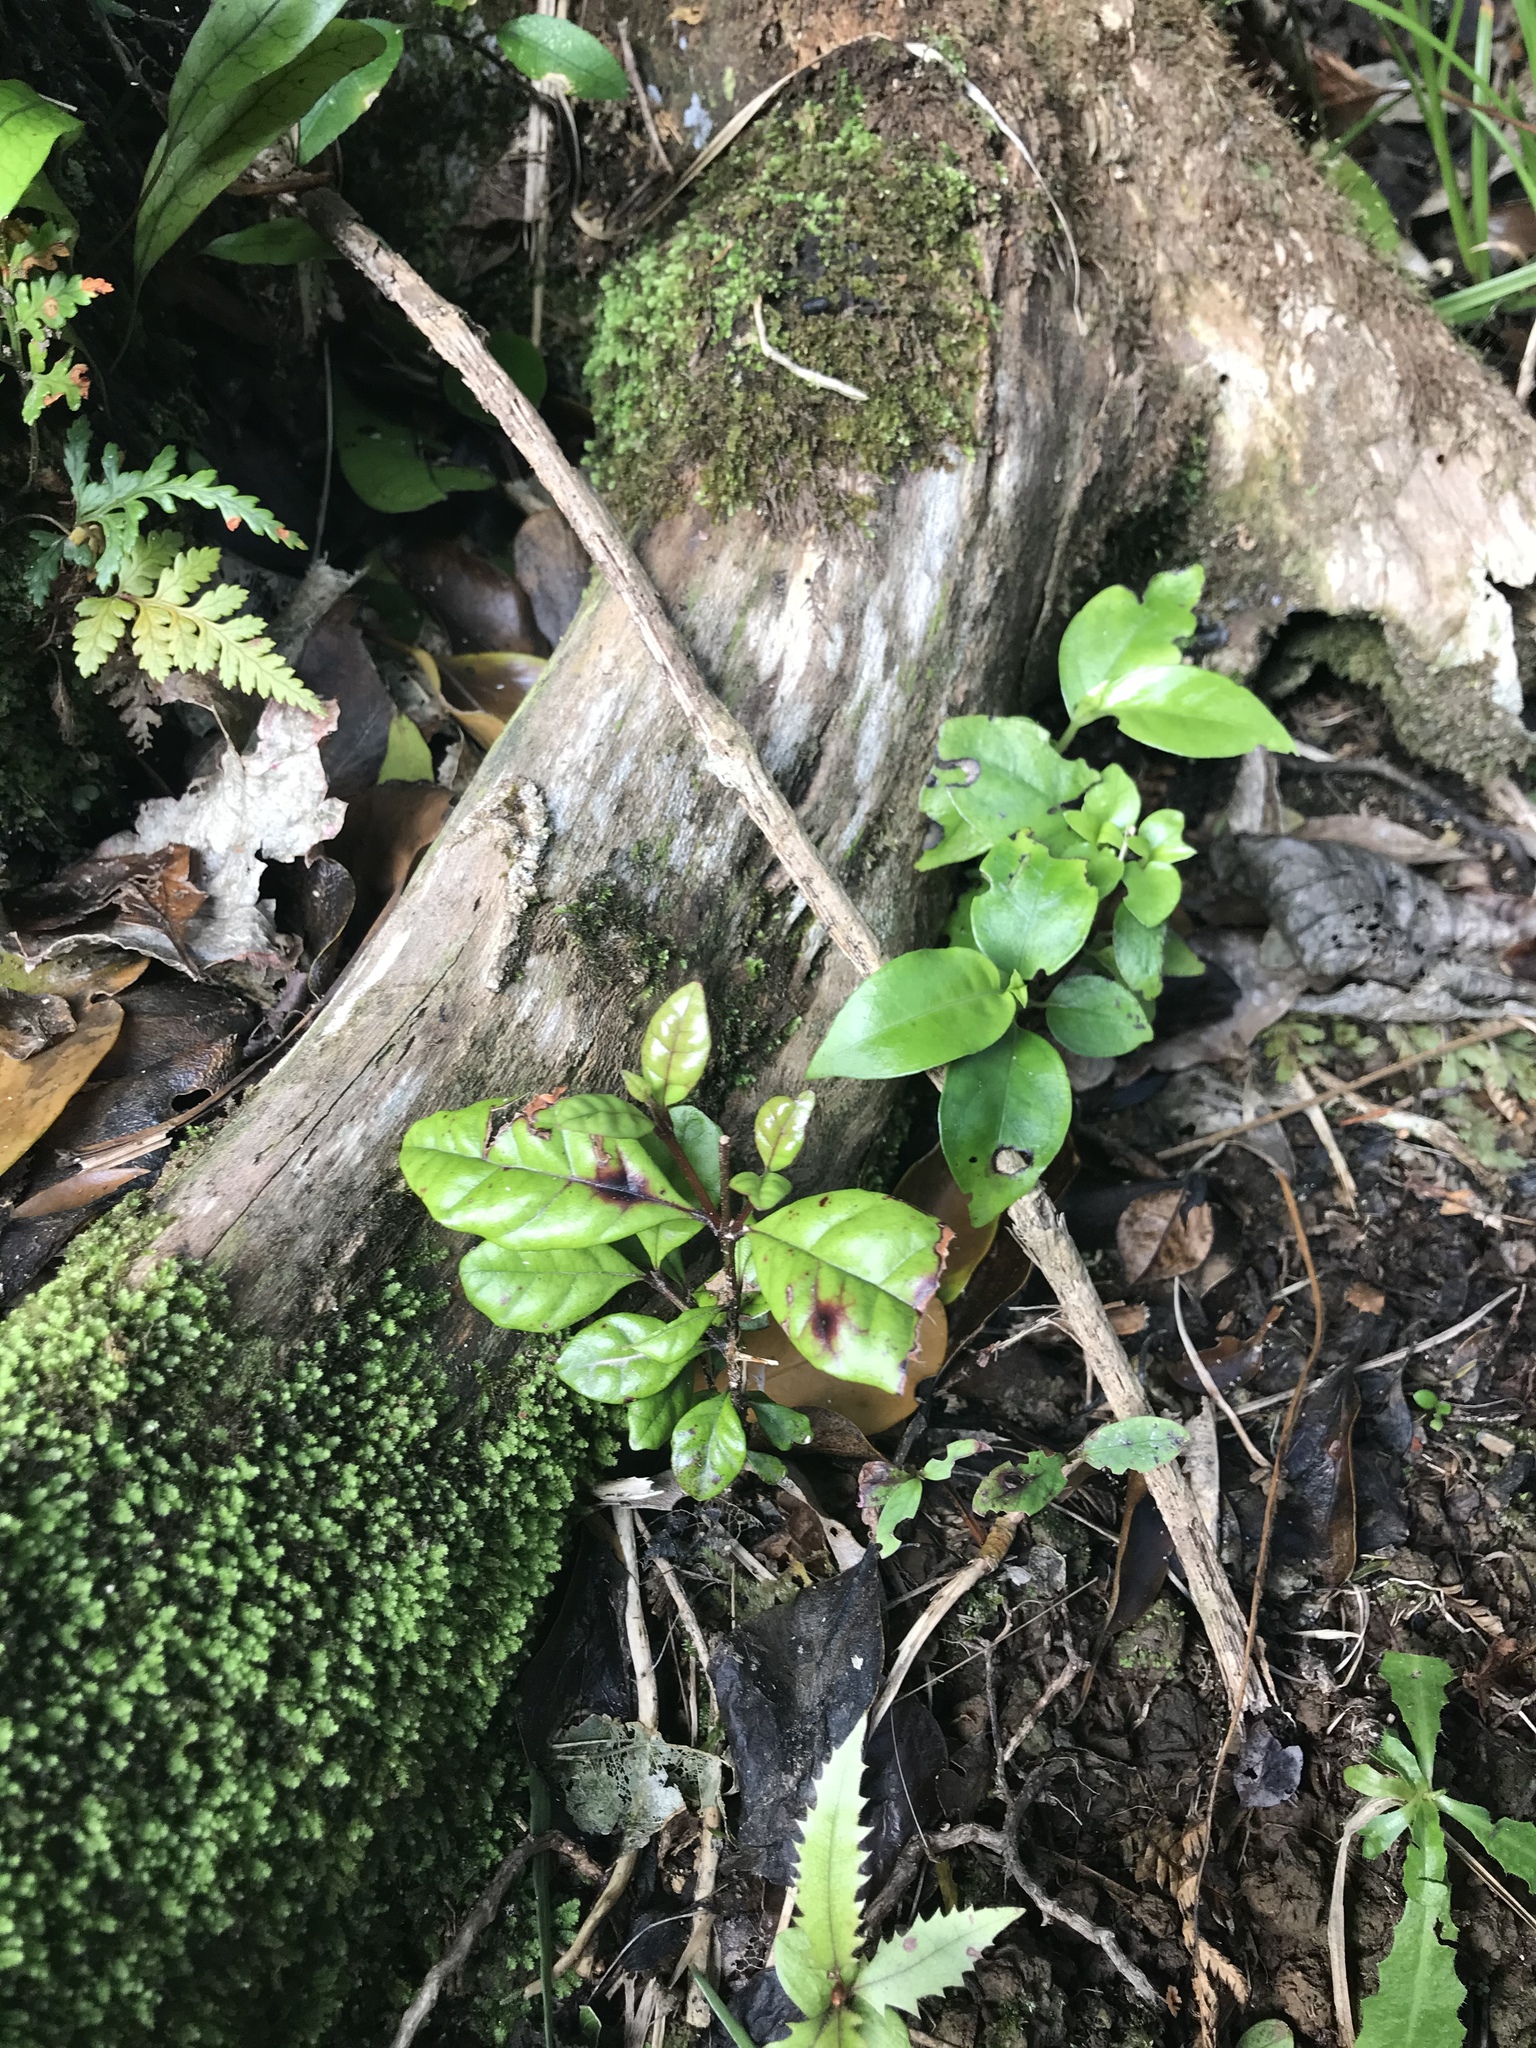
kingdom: Plantae
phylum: Tracheophyta
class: Magnoliopsida
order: Myrtales
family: Myrtaceae
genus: Lophomyrtus
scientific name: Lophomyrtus bullata
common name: Rama rama
